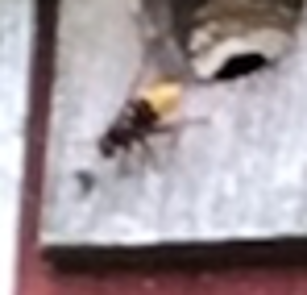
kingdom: Animalia
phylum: Arthropoda
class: Insecta
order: Hymenoptera
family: Vespidae
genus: Vespa
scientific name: Vespa crabro
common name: Hornet
